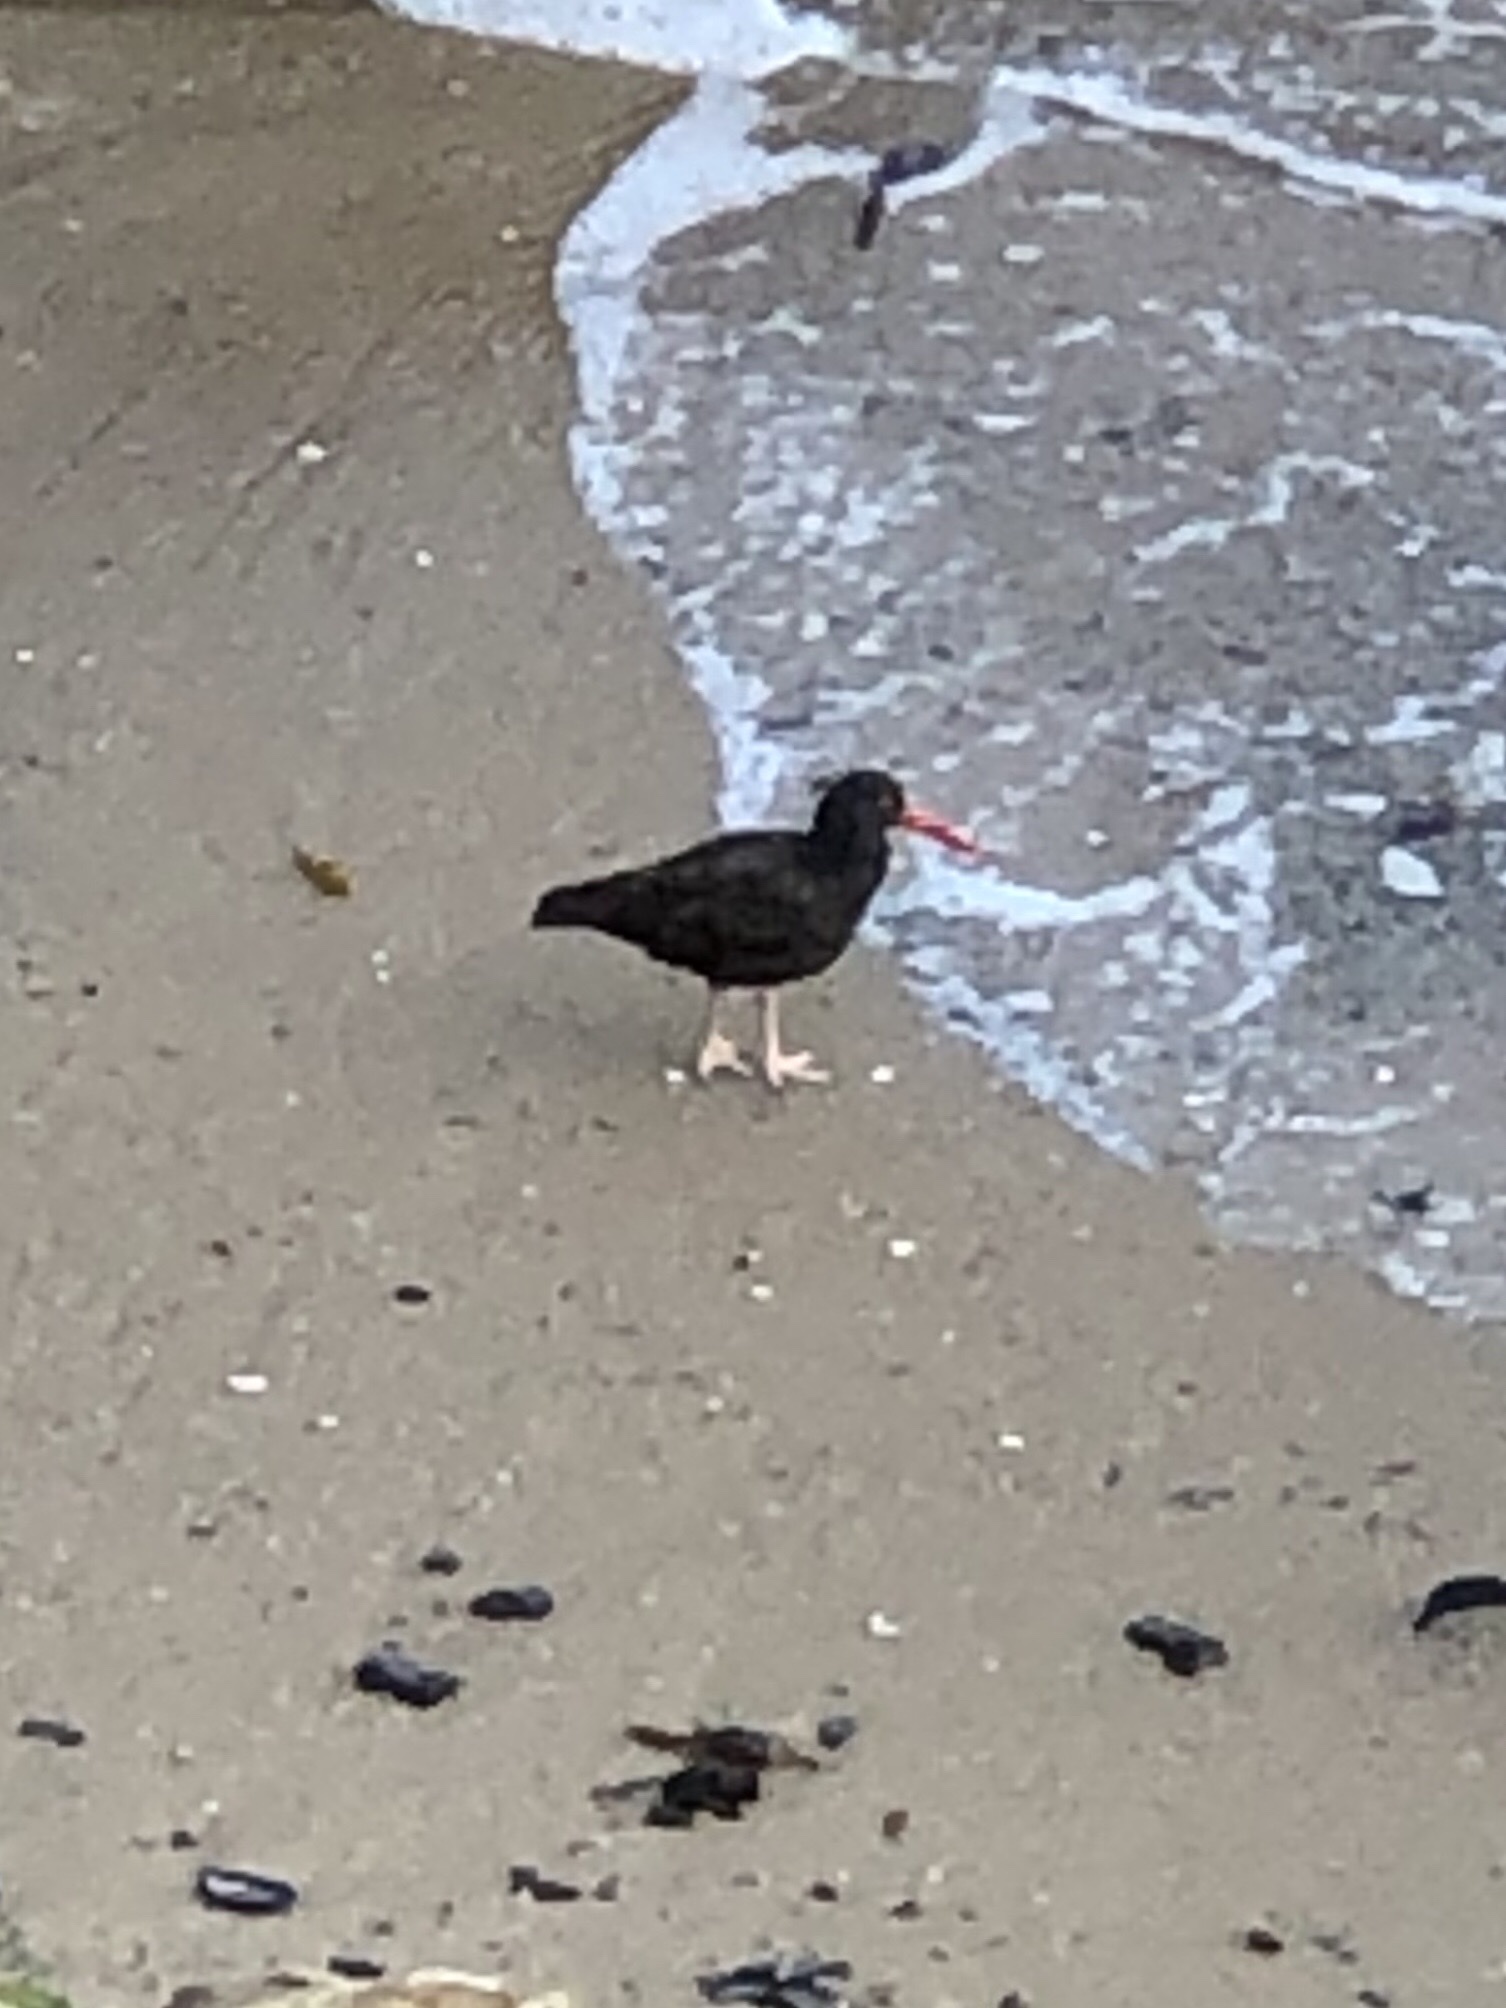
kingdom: Animalia
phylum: Chordata
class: Aves
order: Charadriiformes
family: Haematopodidae
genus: Haematopus
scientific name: Haematopus bachmani
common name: Black oystercatcher
